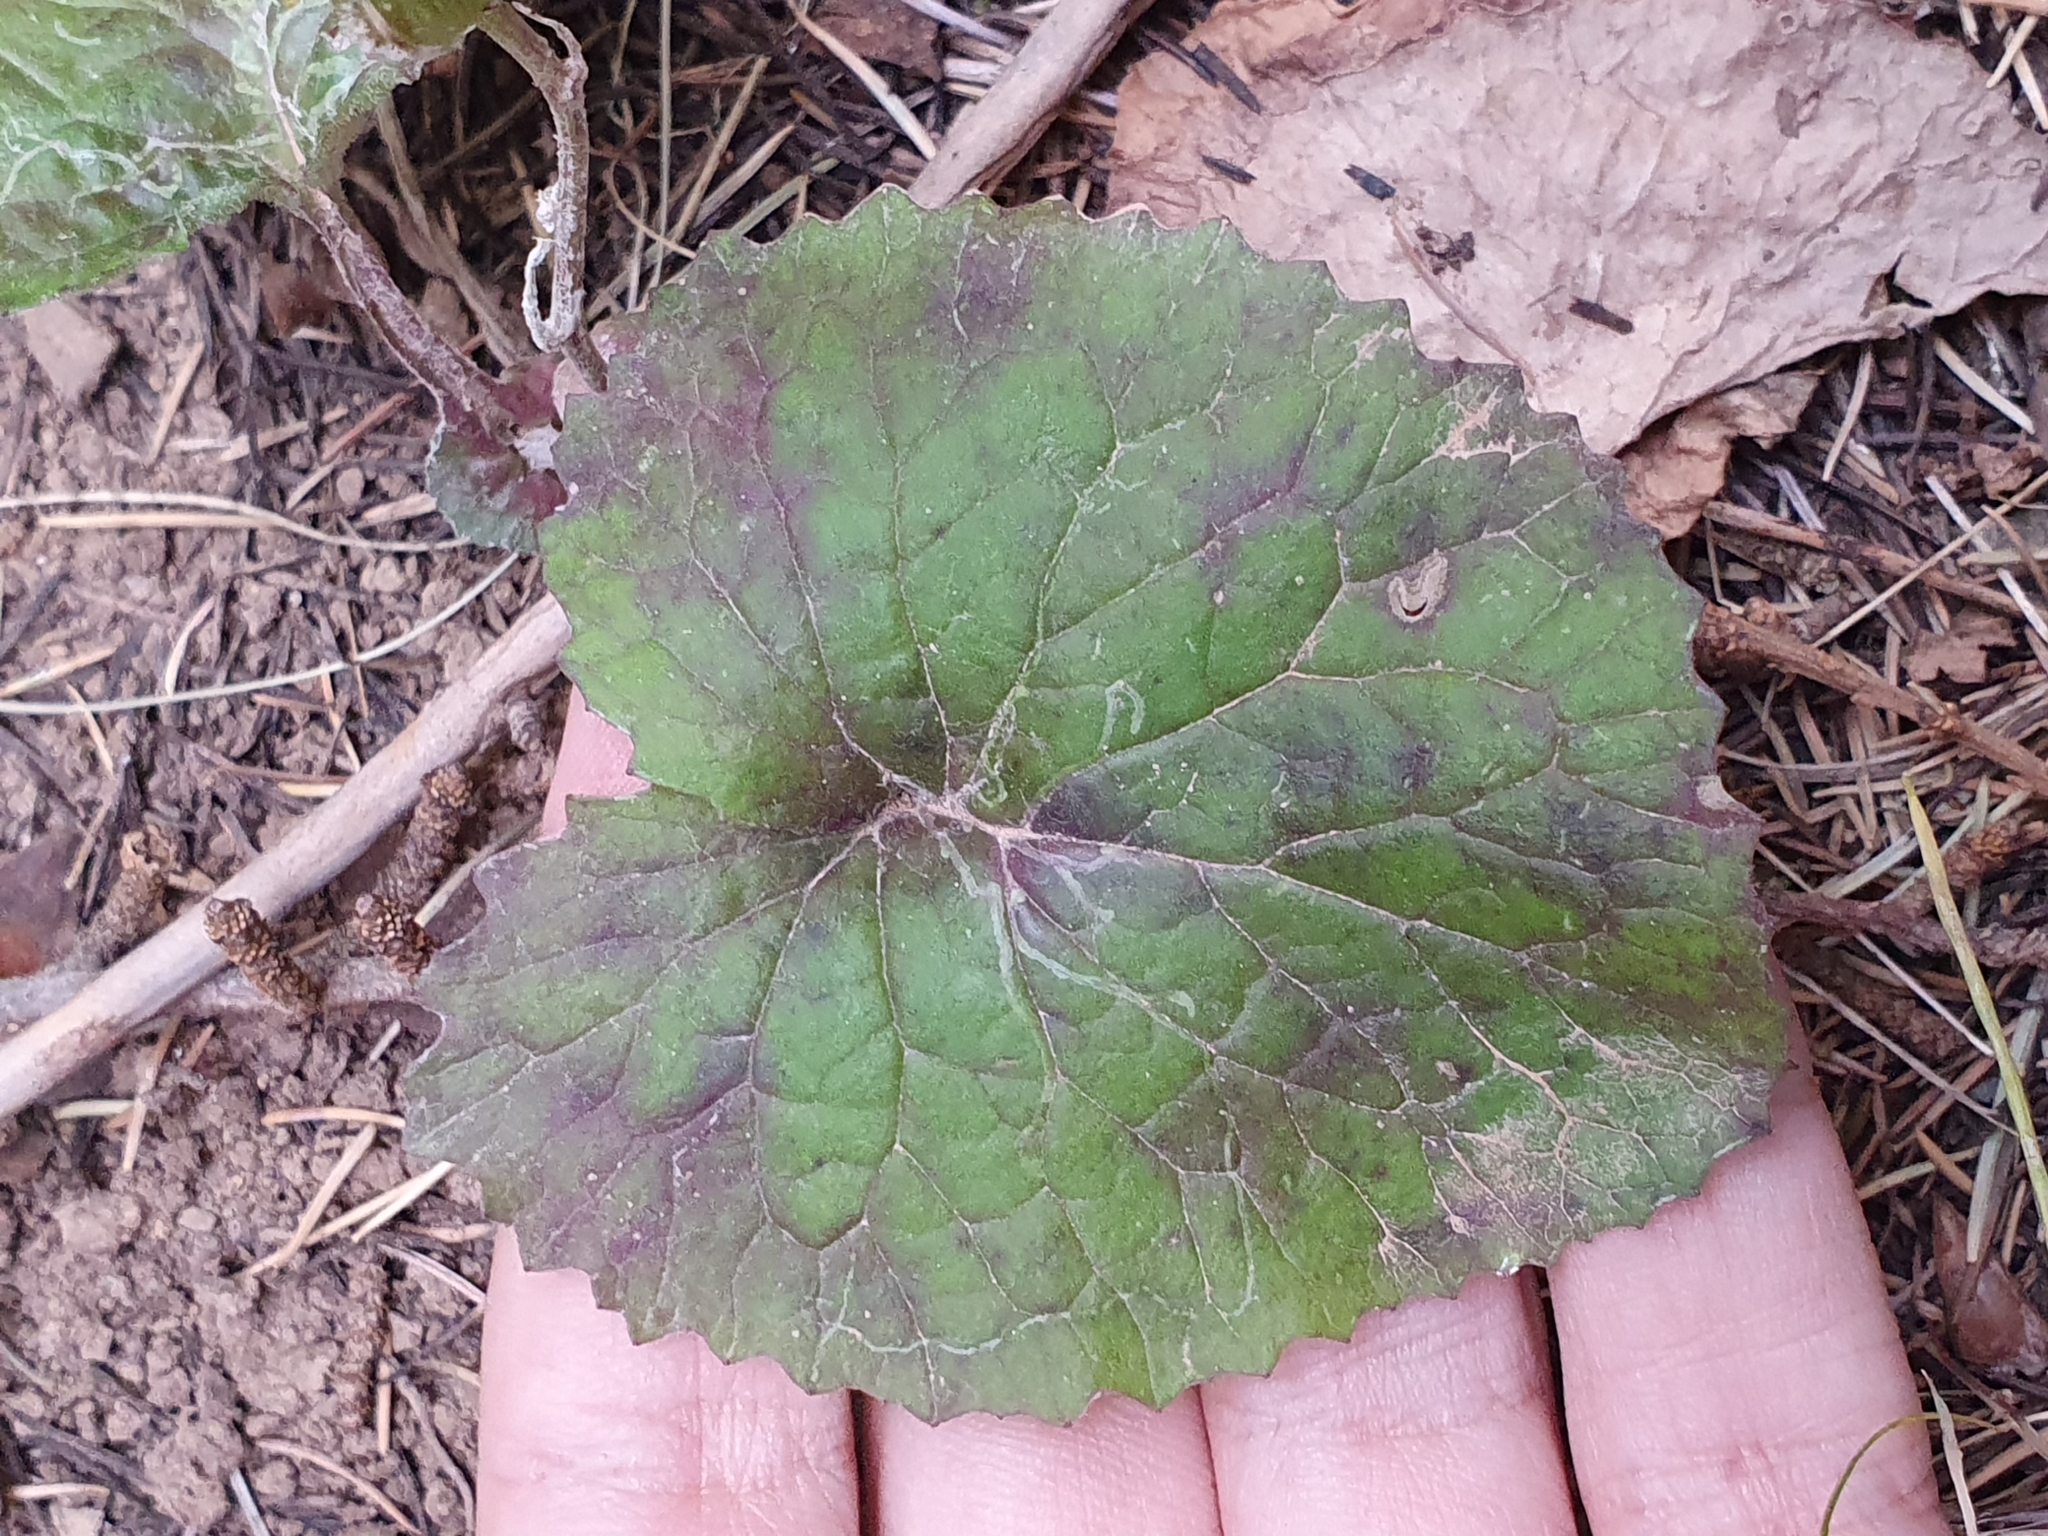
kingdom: Plantae
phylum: Tracheophyta
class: Magnoliopsida
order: Asterales
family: Asteraceae
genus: Senecio
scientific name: Senecio perralderianus
